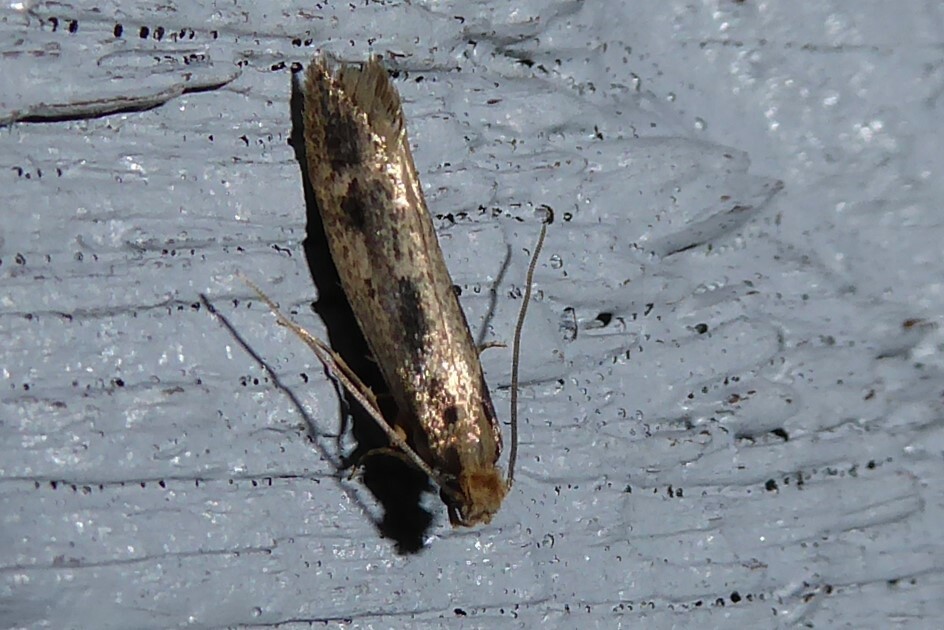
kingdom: Animalia
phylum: Arthropoda
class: Insecta
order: Lepidoptera
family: Tineidae
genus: Tinea
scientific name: Tinea pallescentella
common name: Large pale clothes moth
